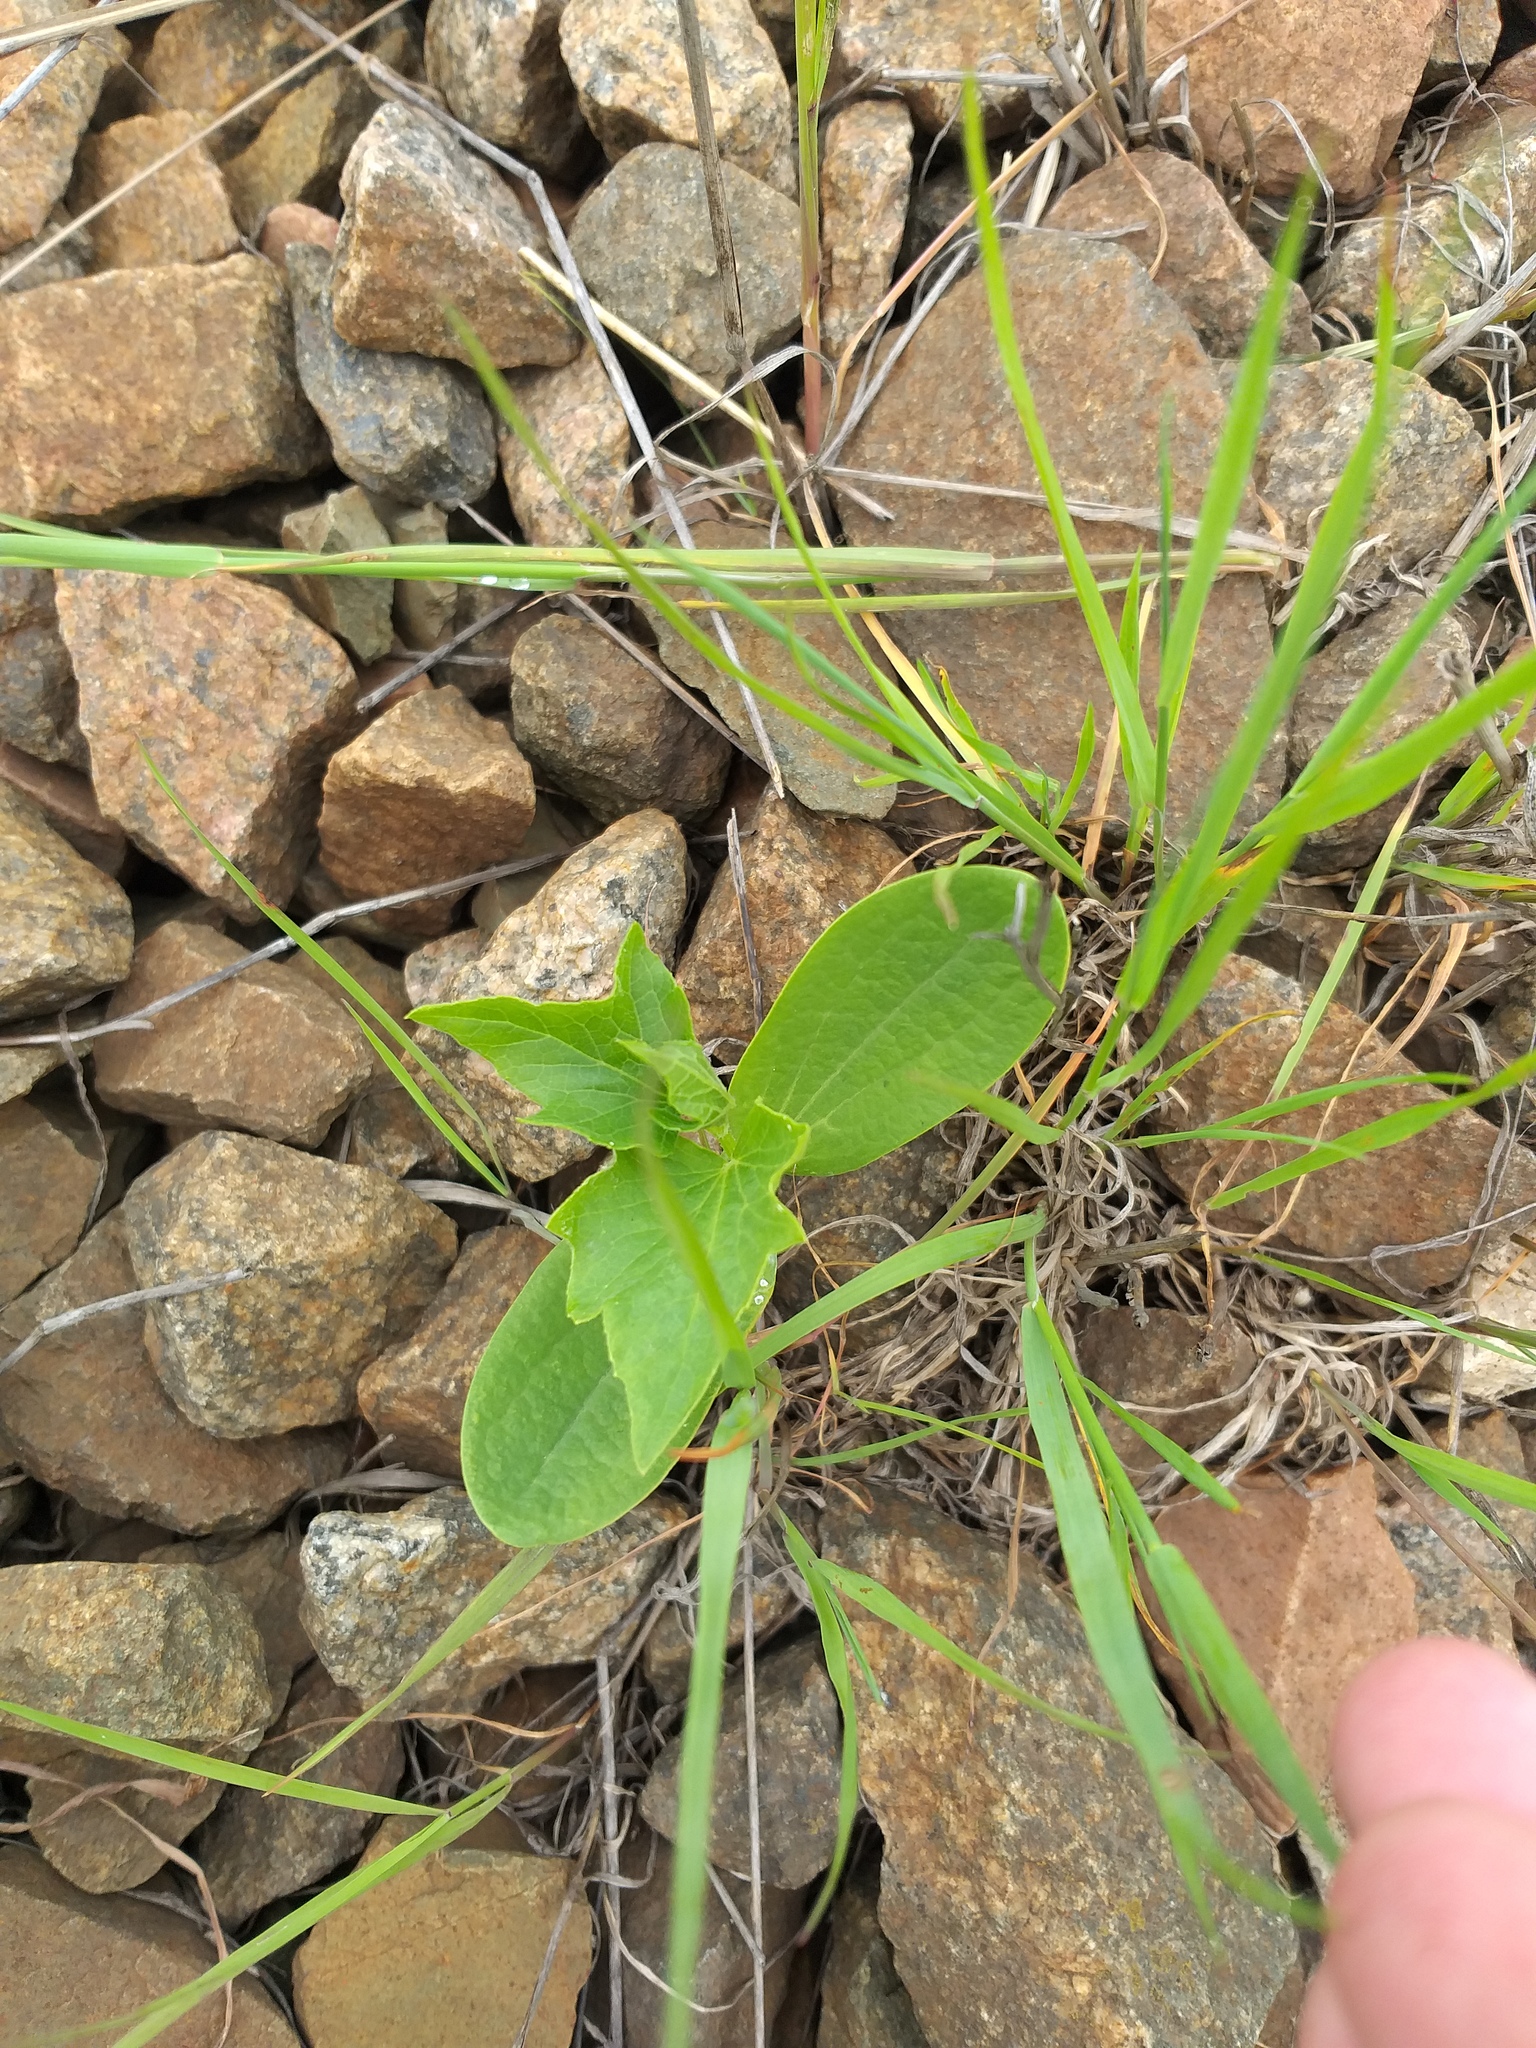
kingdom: Plantae
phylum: Tracheophyta
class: Magnoliopsida
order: Cucurbitales
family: Cucurbitaceae
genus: Echinocystis
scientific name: Echinocystis lobata
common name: Wild cucumber
